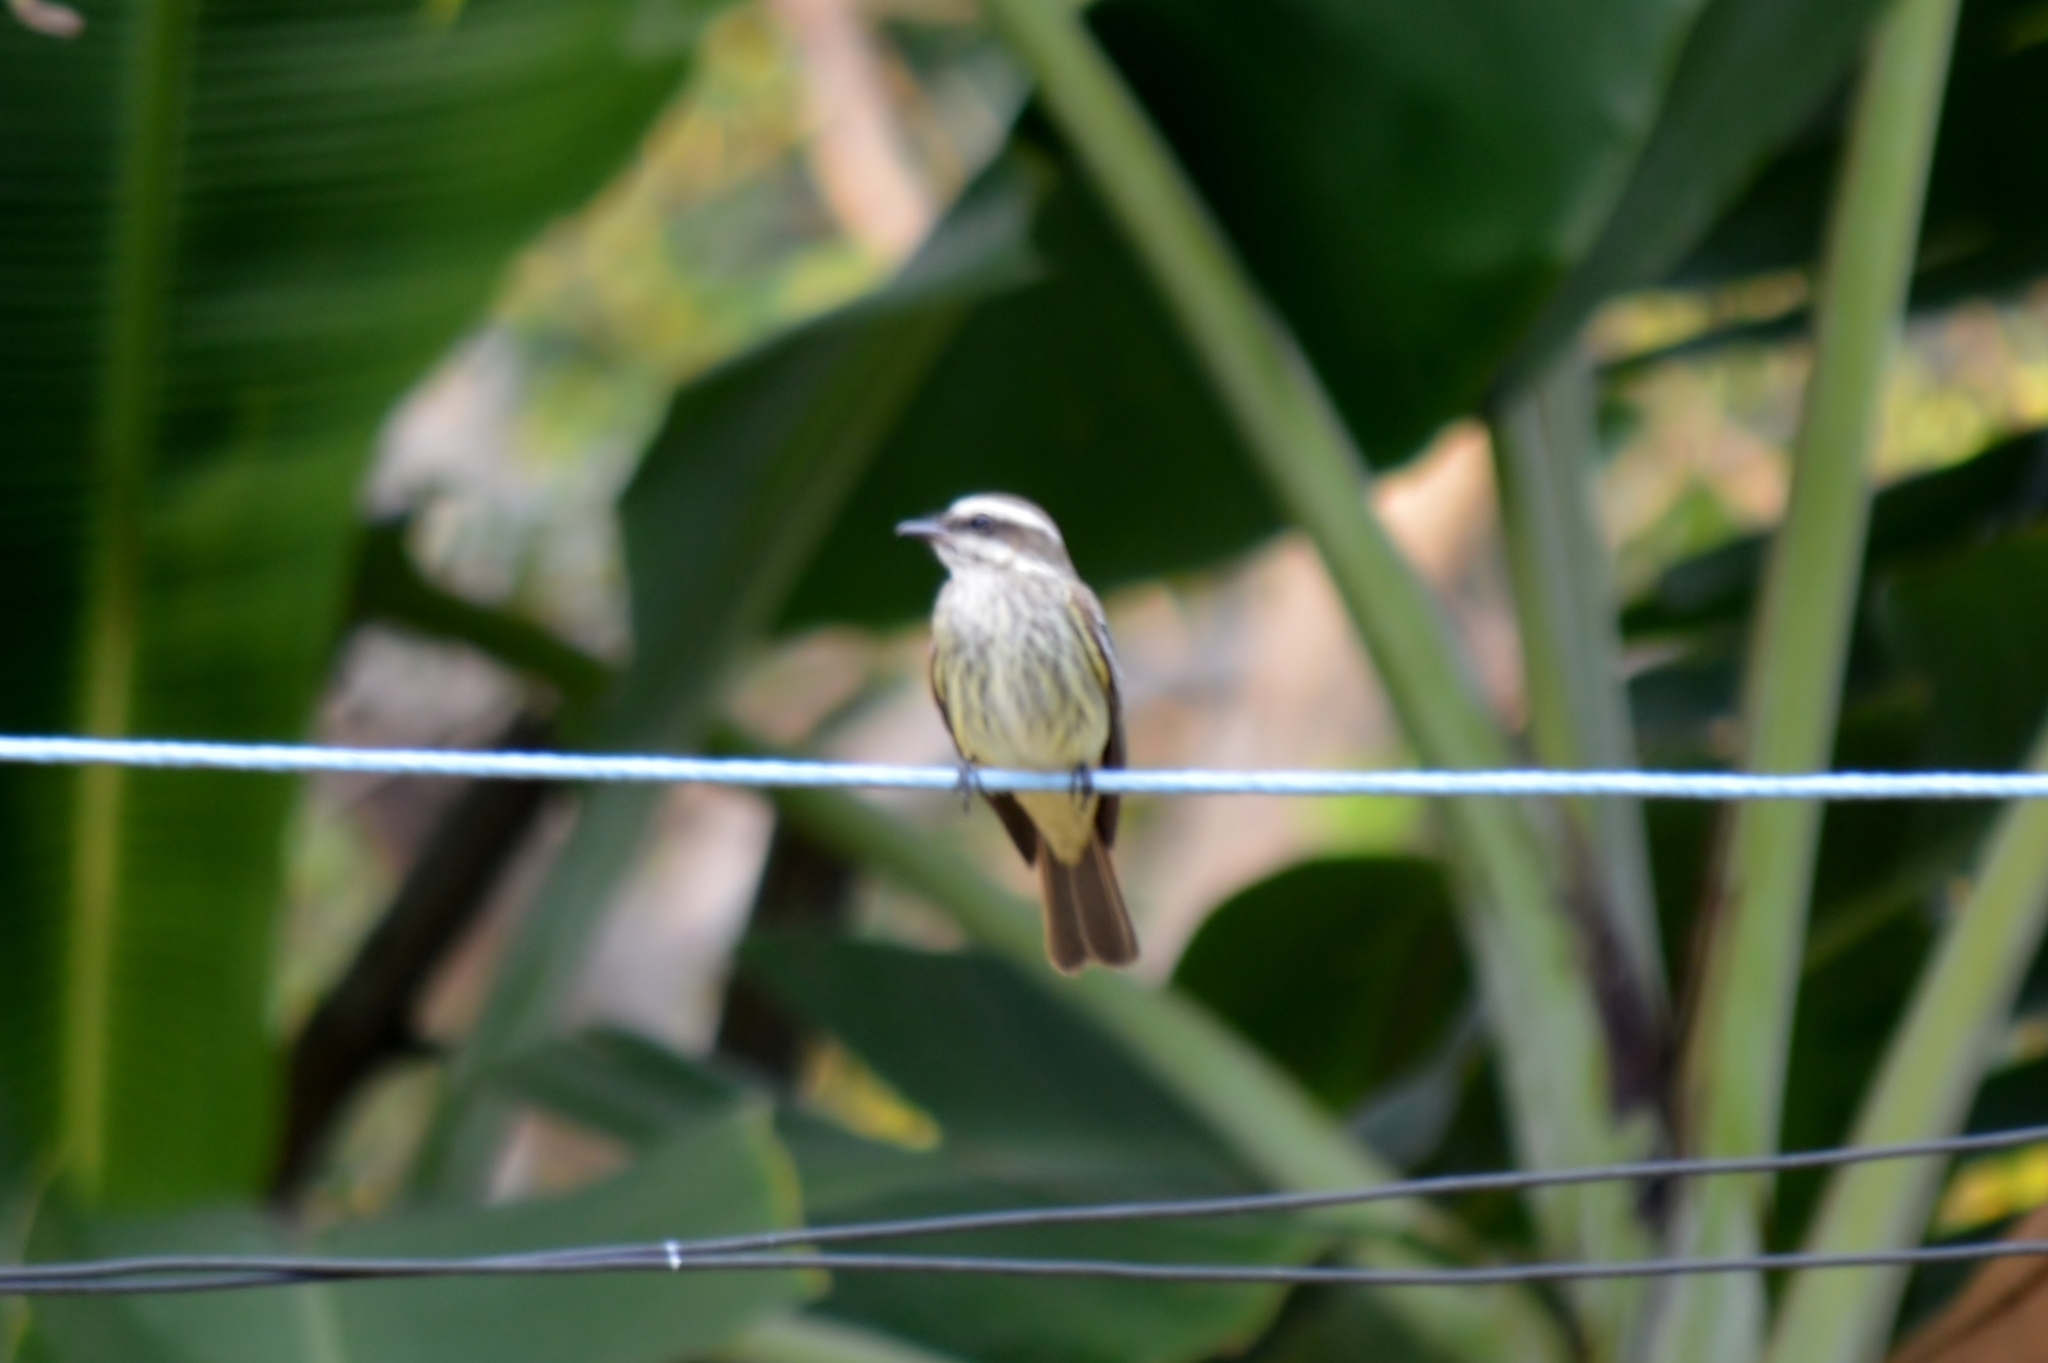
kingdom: Animalia
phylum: Chordata
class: Aves
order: Passeriformes
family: Tyrannidae
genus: Myiodynastes
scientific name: Myiodynastes maculatus
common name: Streaked flycatcher
